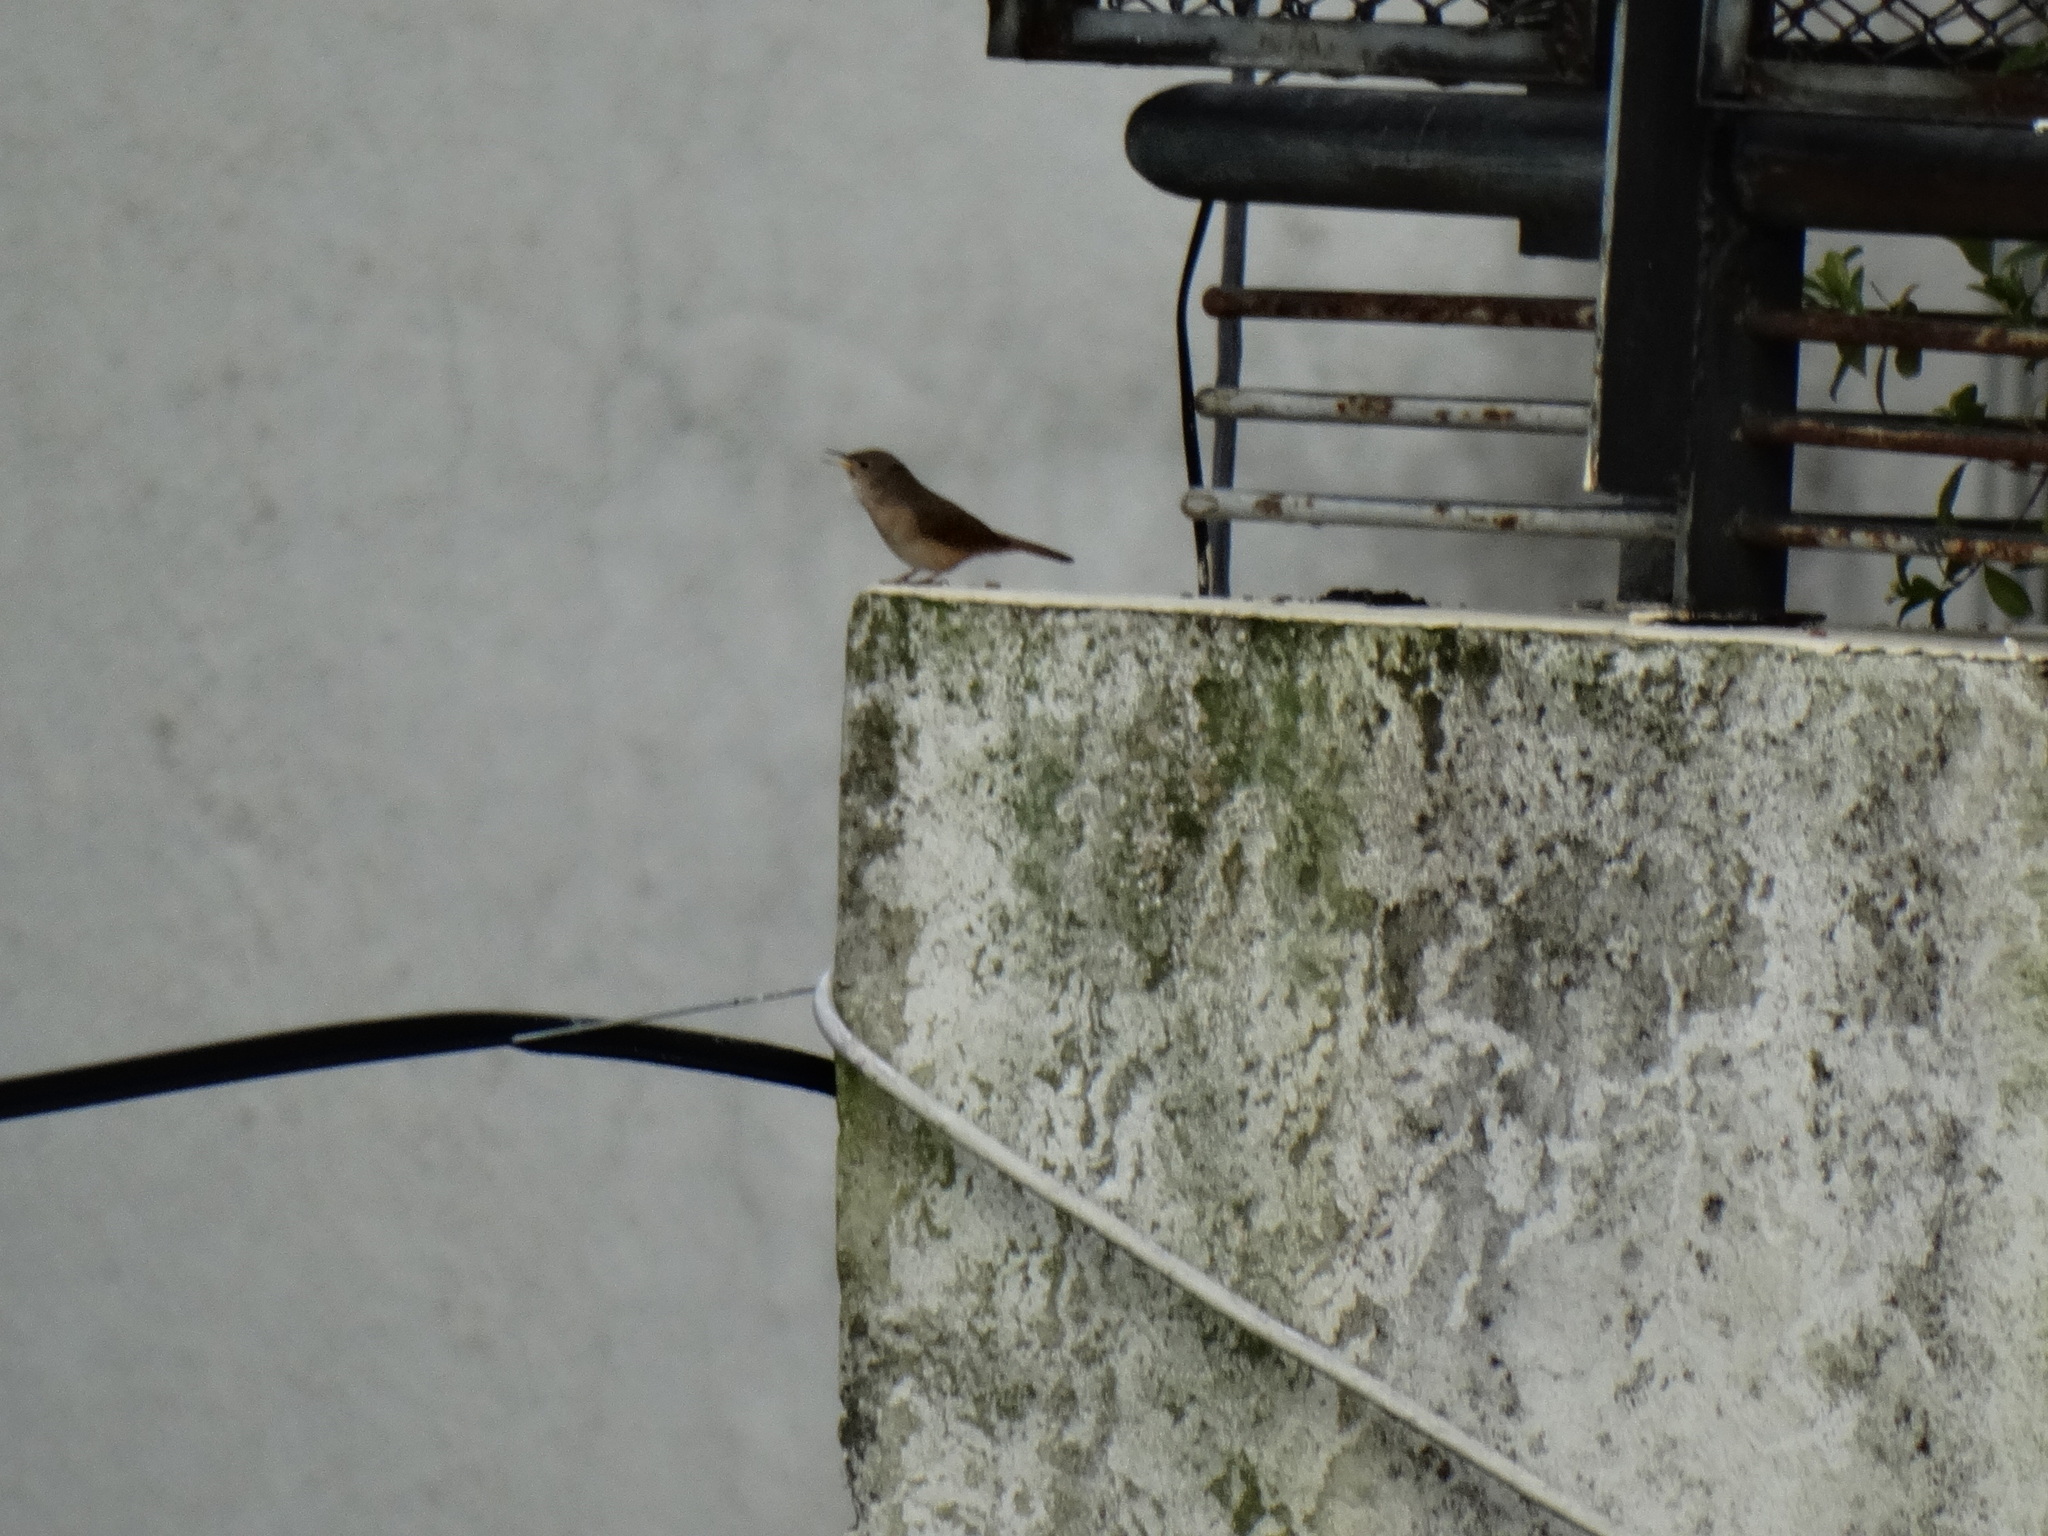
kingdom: Animalia
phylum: Chordata
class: Aves
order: Passeriformes
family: Troglodytidae
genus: Troglodytes
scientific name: Troglodytes aedon
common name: House wren
